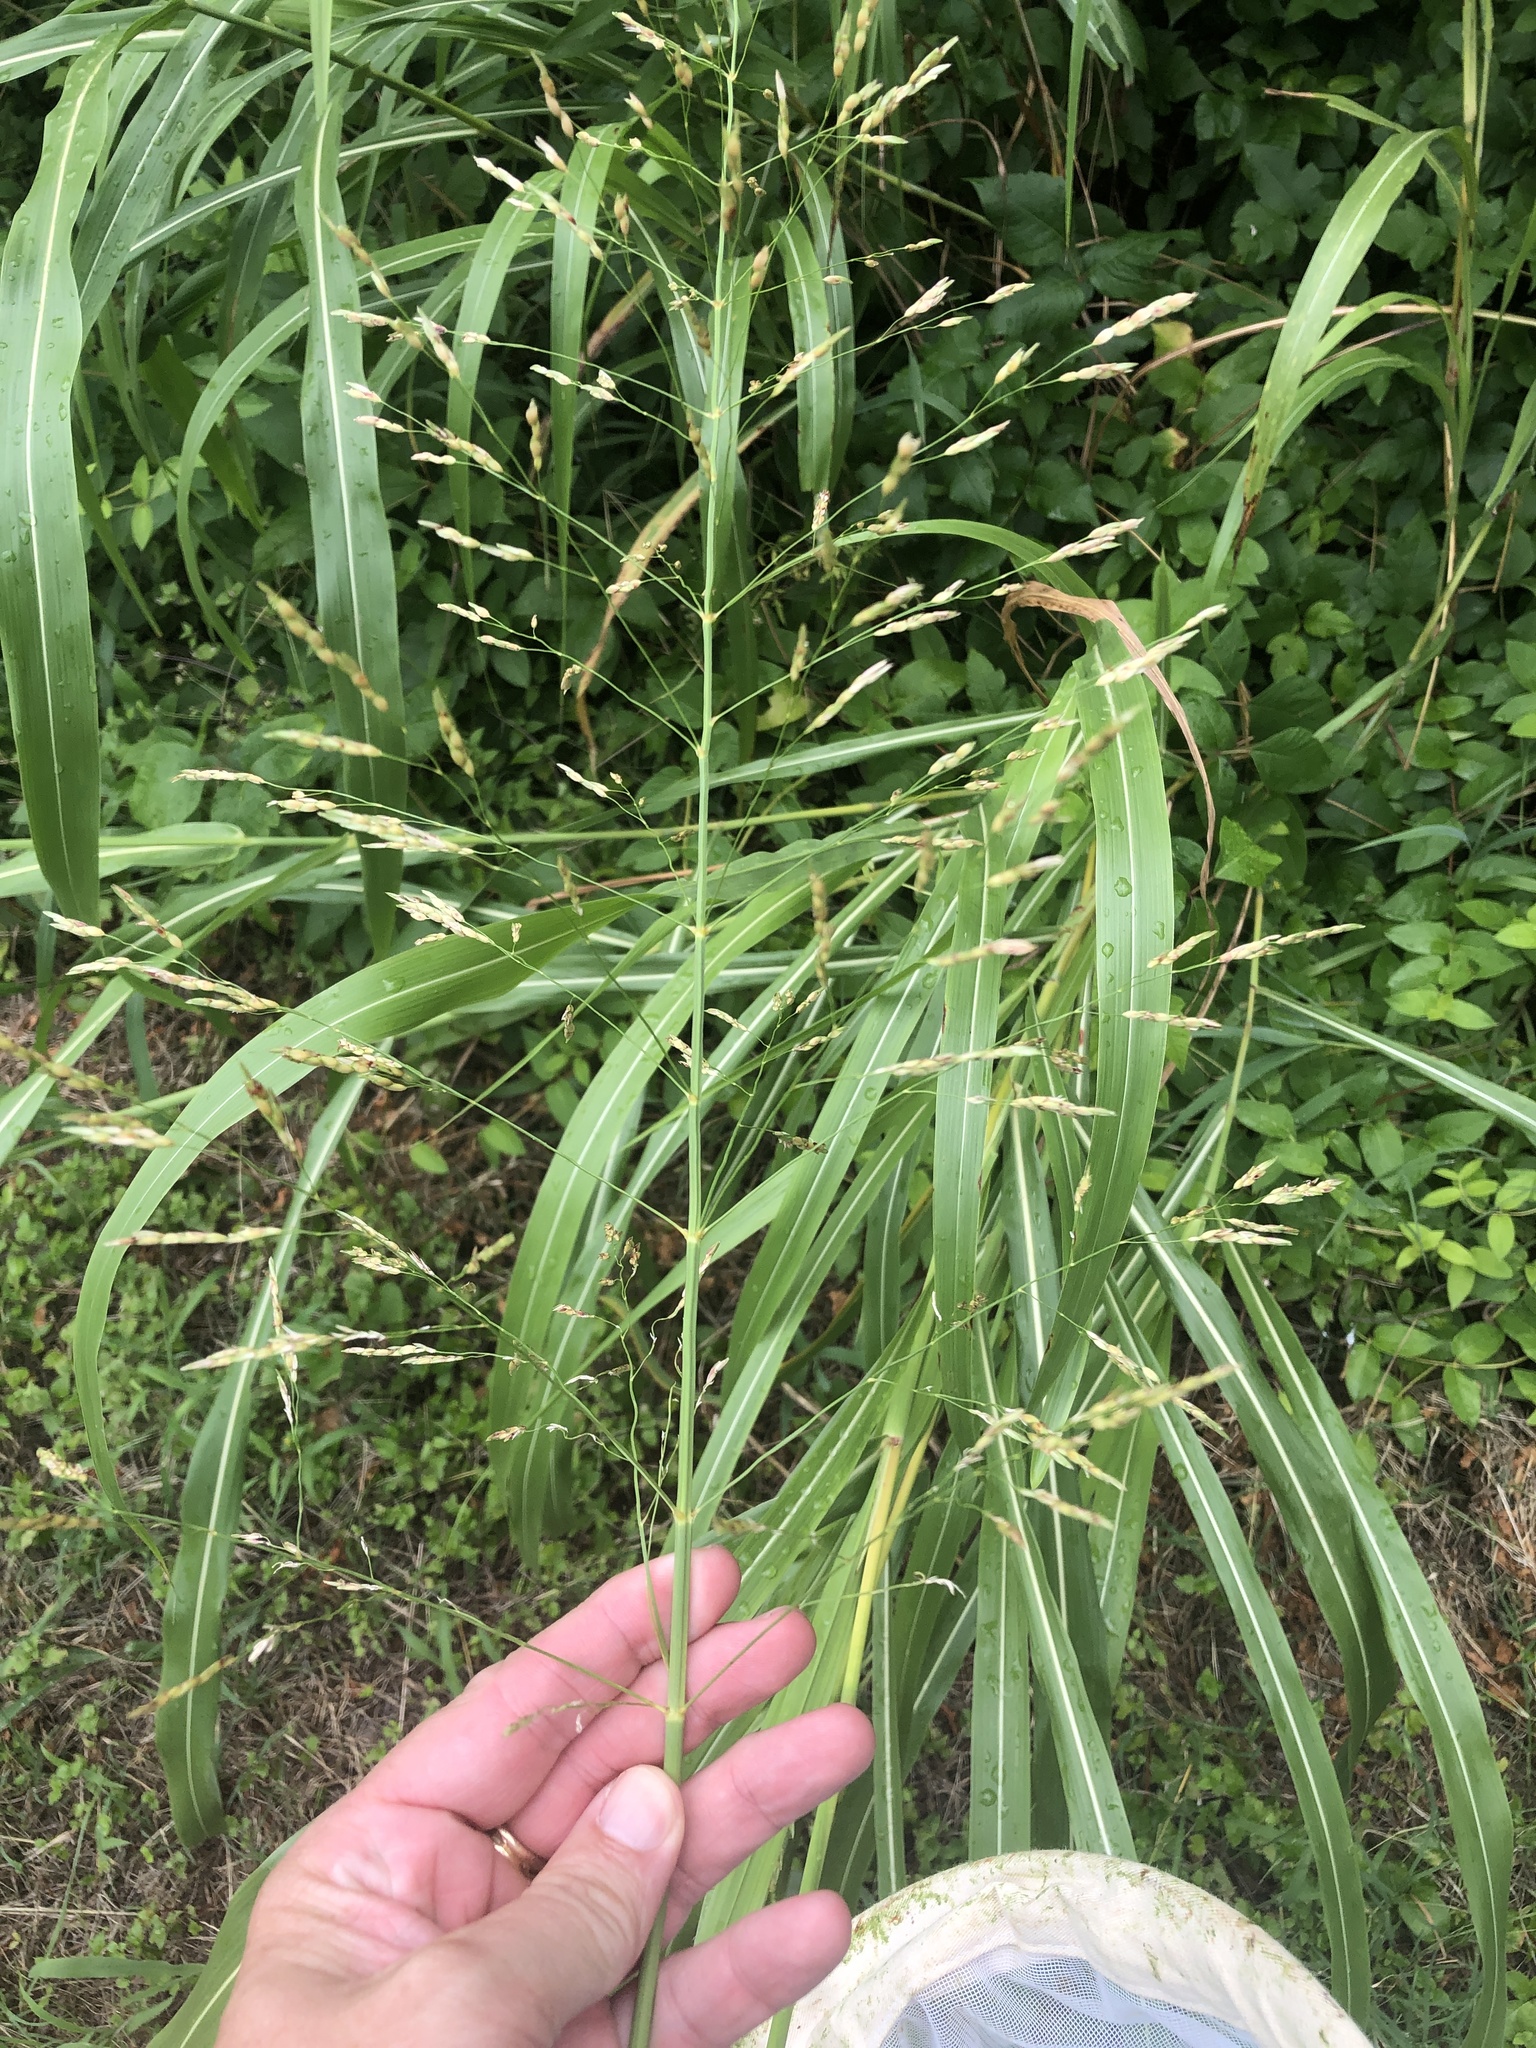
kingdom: Plantae
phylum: Tracheophyta
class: Liliopsida
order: Poales
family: Poaceae
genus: Sorghum
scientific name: Sorghum halepense
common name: Johnson-grass
